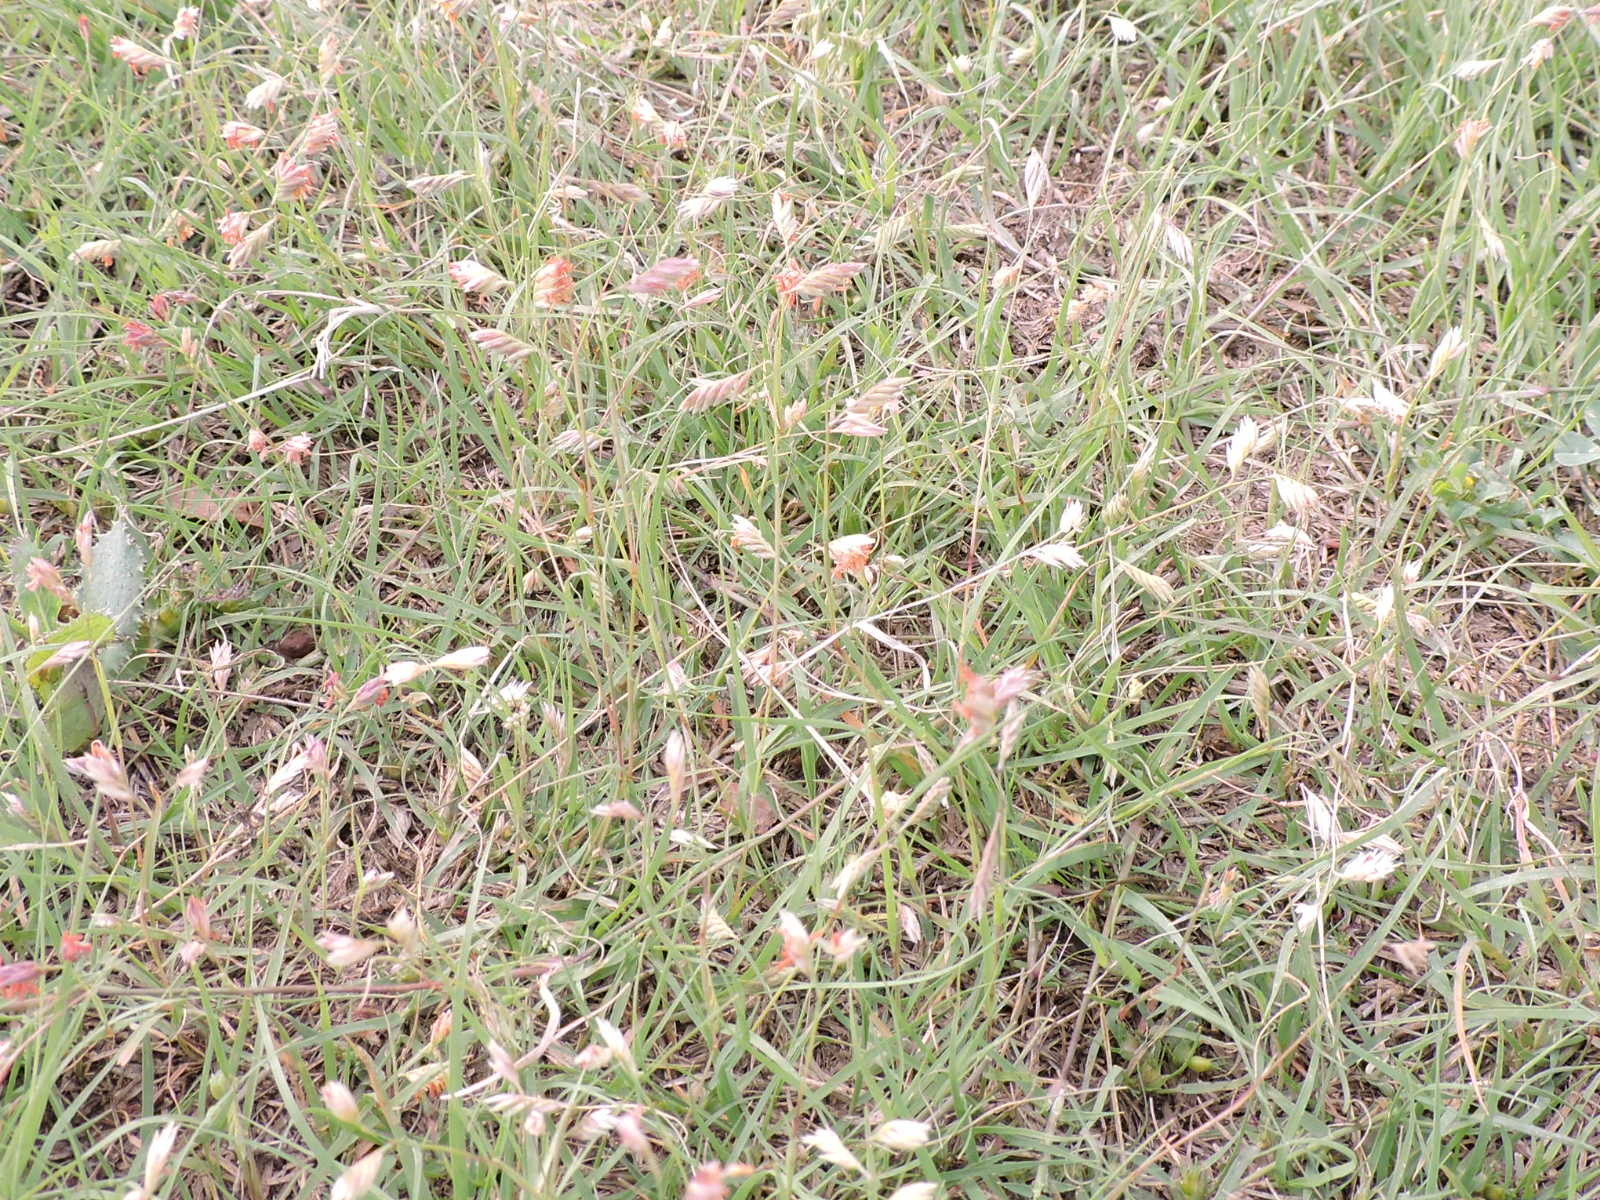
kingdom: Plantae
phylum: Tracheophyta
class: Liliopsida
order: Poales
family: Poaceae
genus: Bouteloua
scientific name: Bouteloua dactyloides
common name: Buffalo grass
